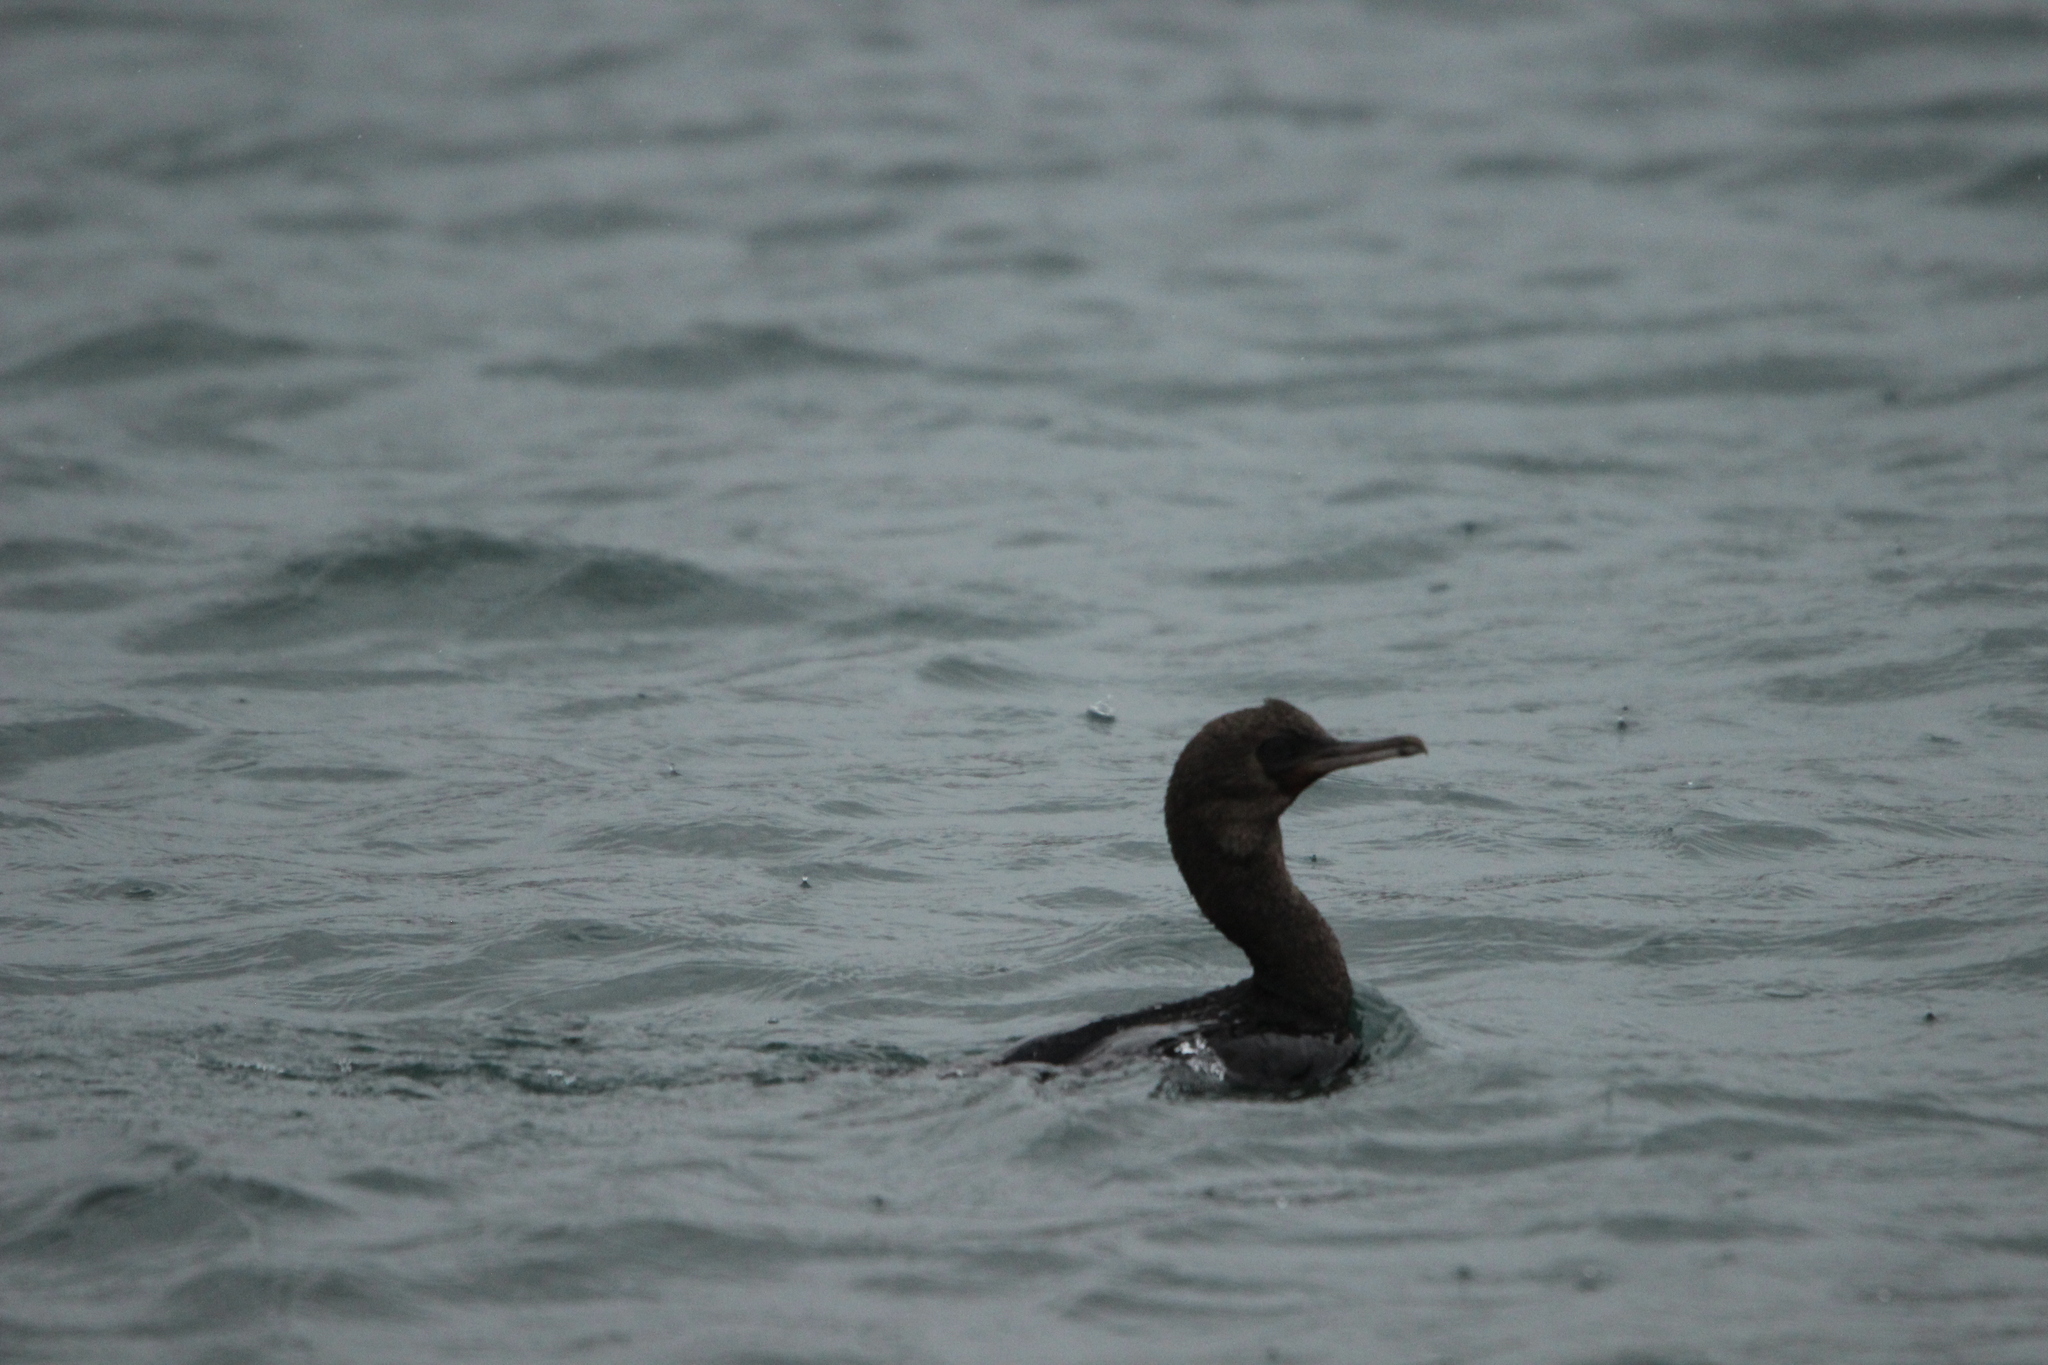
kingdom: Animalia
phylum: Chordata
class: Aves
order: Suliformes
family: Phalacrocoracidae
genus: Leucocarbo
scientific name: Leucocarbo chalconotus
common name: Stewart shag
